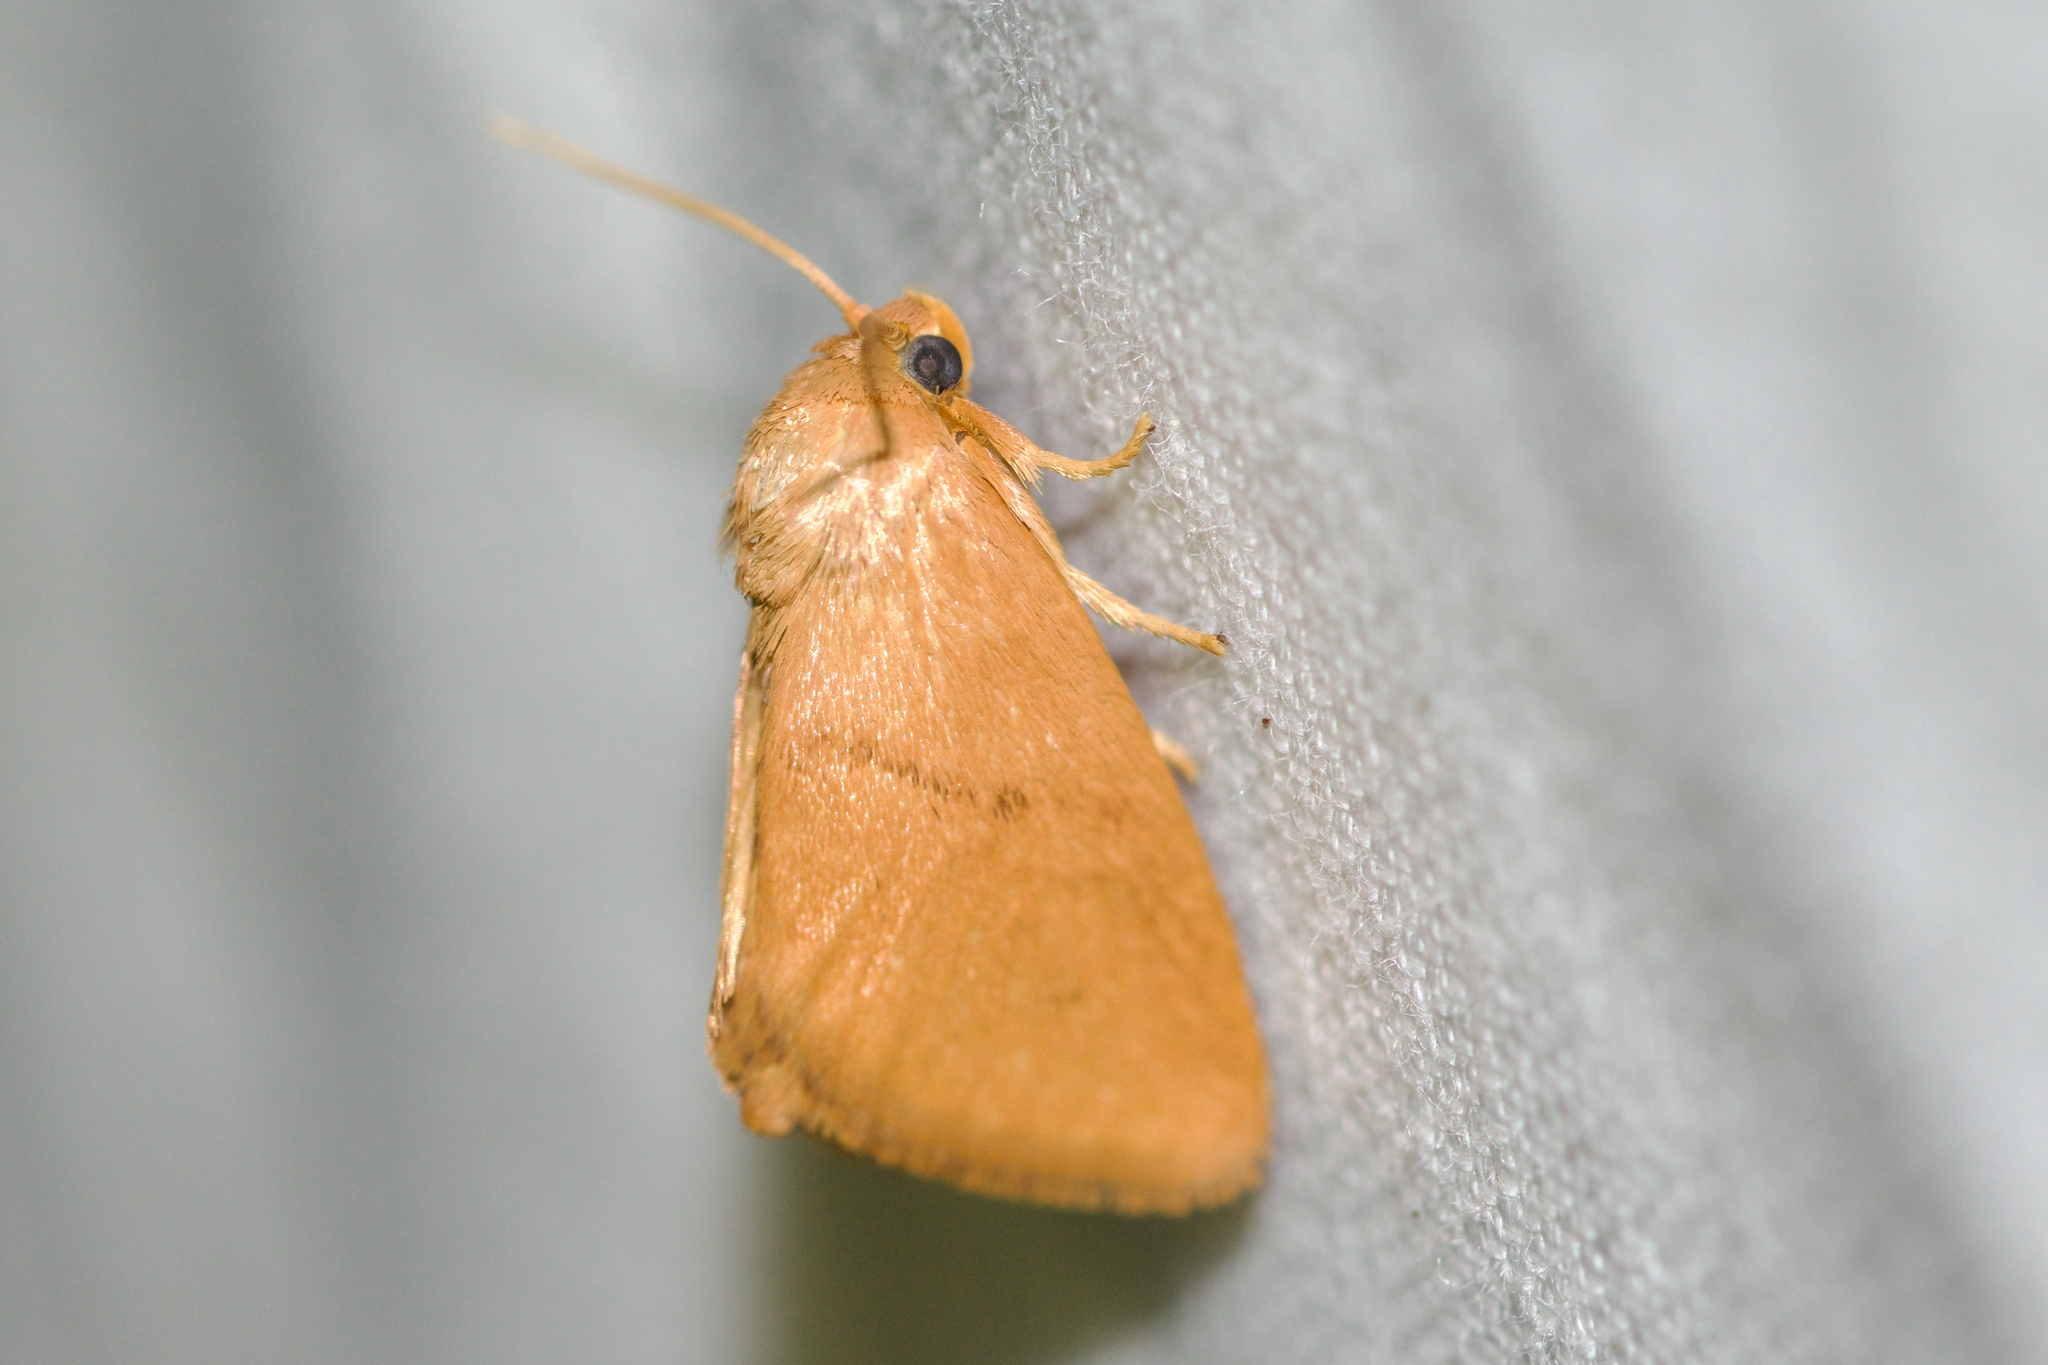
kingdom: Animalia
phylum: Arthropoda
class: Insecta
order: Lepidoptera
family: Limacodidae
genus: Tortricidia
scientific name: Tortricidia pallida
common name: Red-crossed button slug moth
